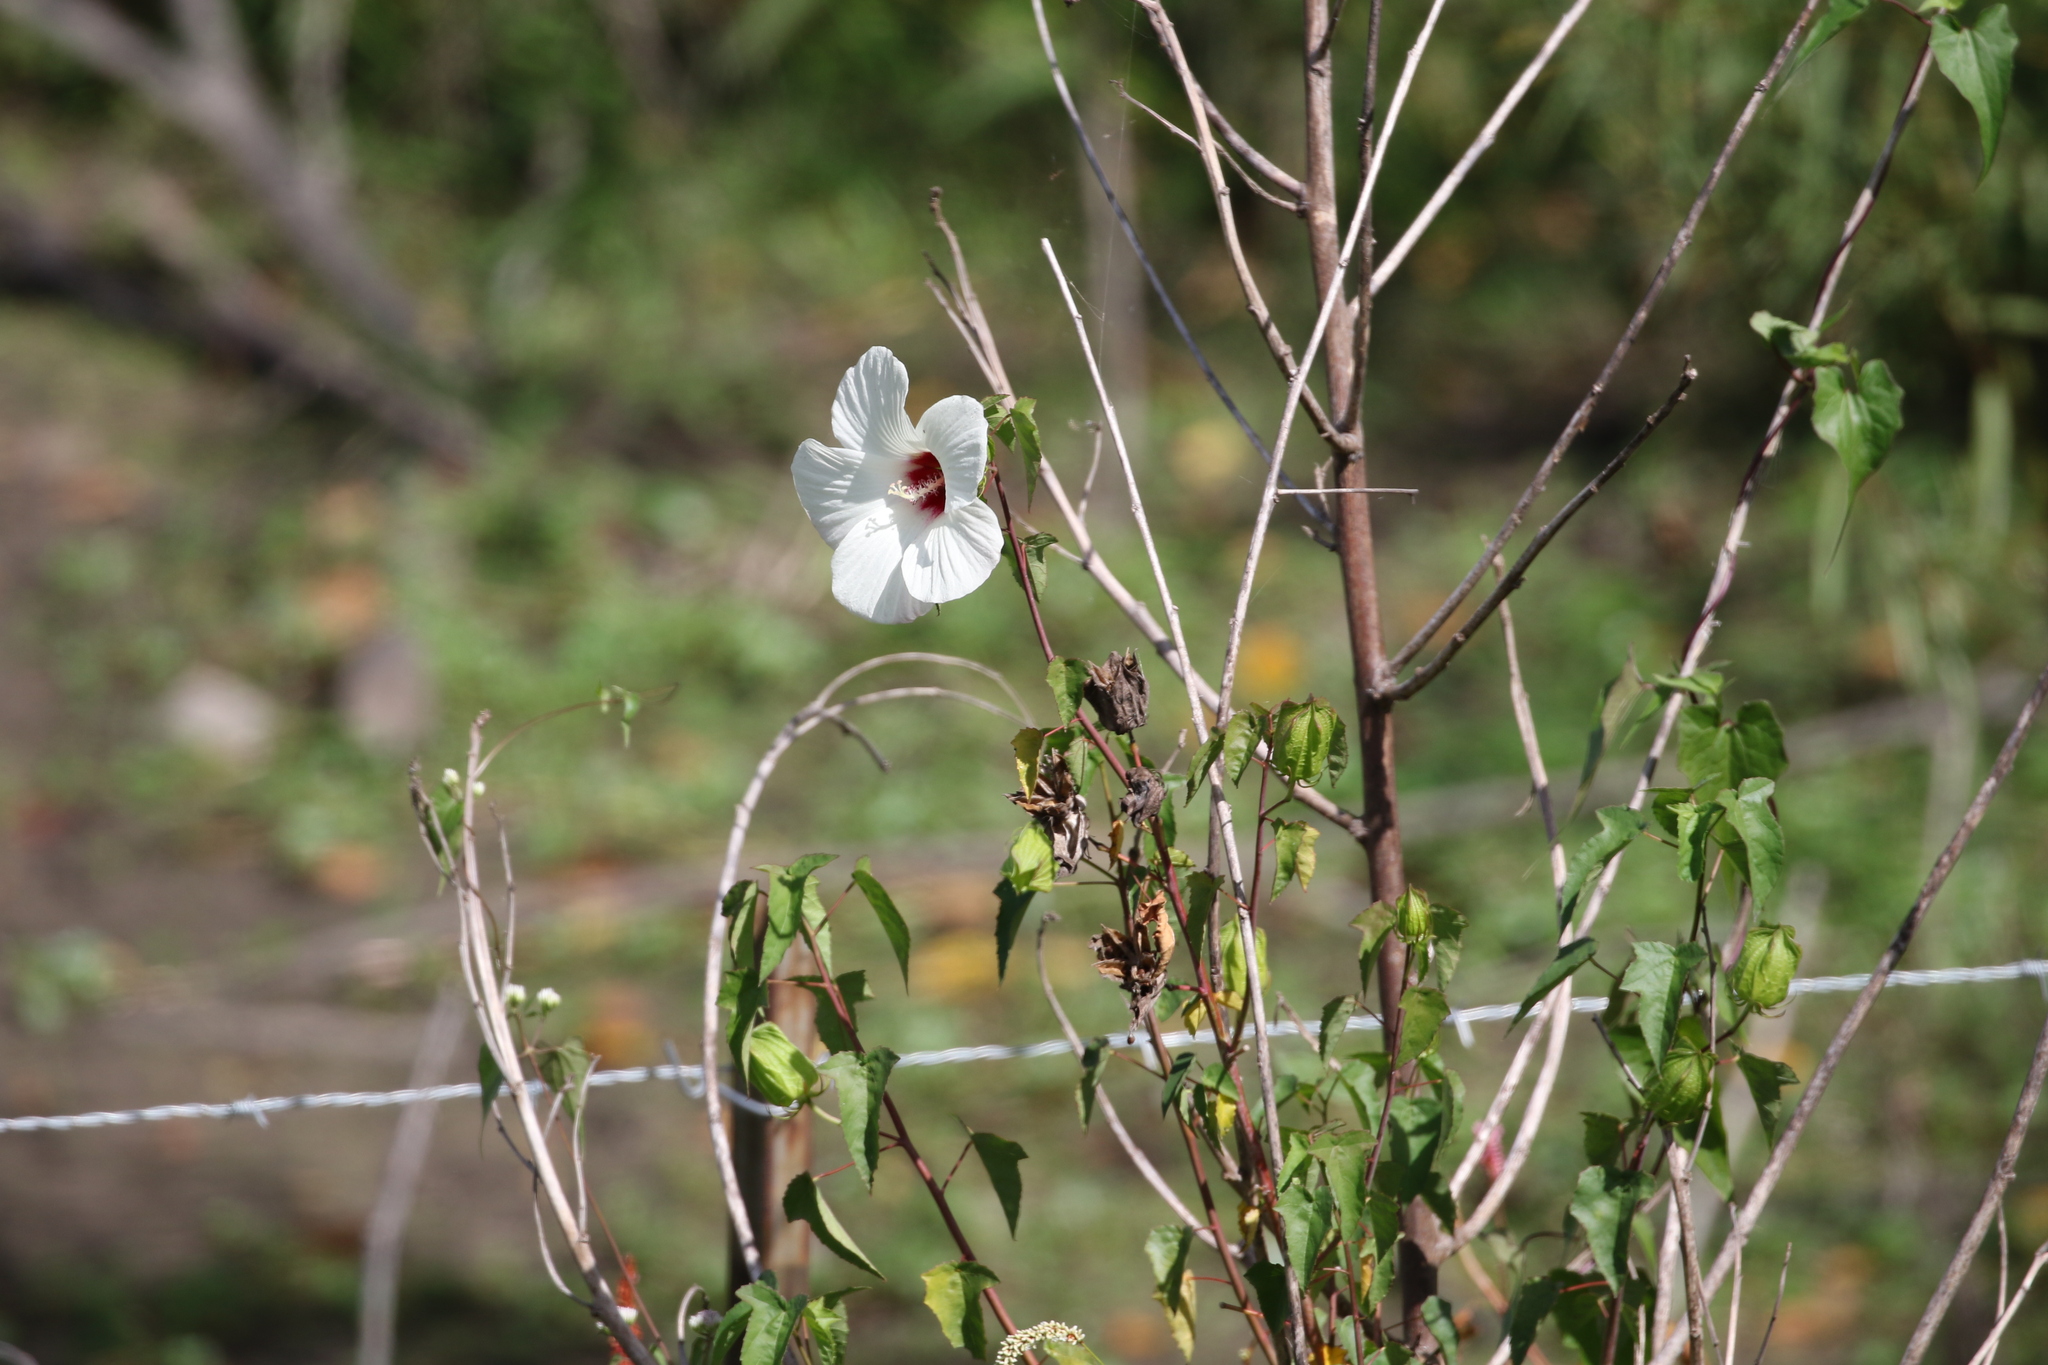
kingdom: Plantae
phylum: Tracheophyta
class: Magnoliopsida
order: Malvales
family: Malvaceae
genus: Hibiscus
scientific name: Hibiscus laevis
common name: Scarlet rose-mallow
